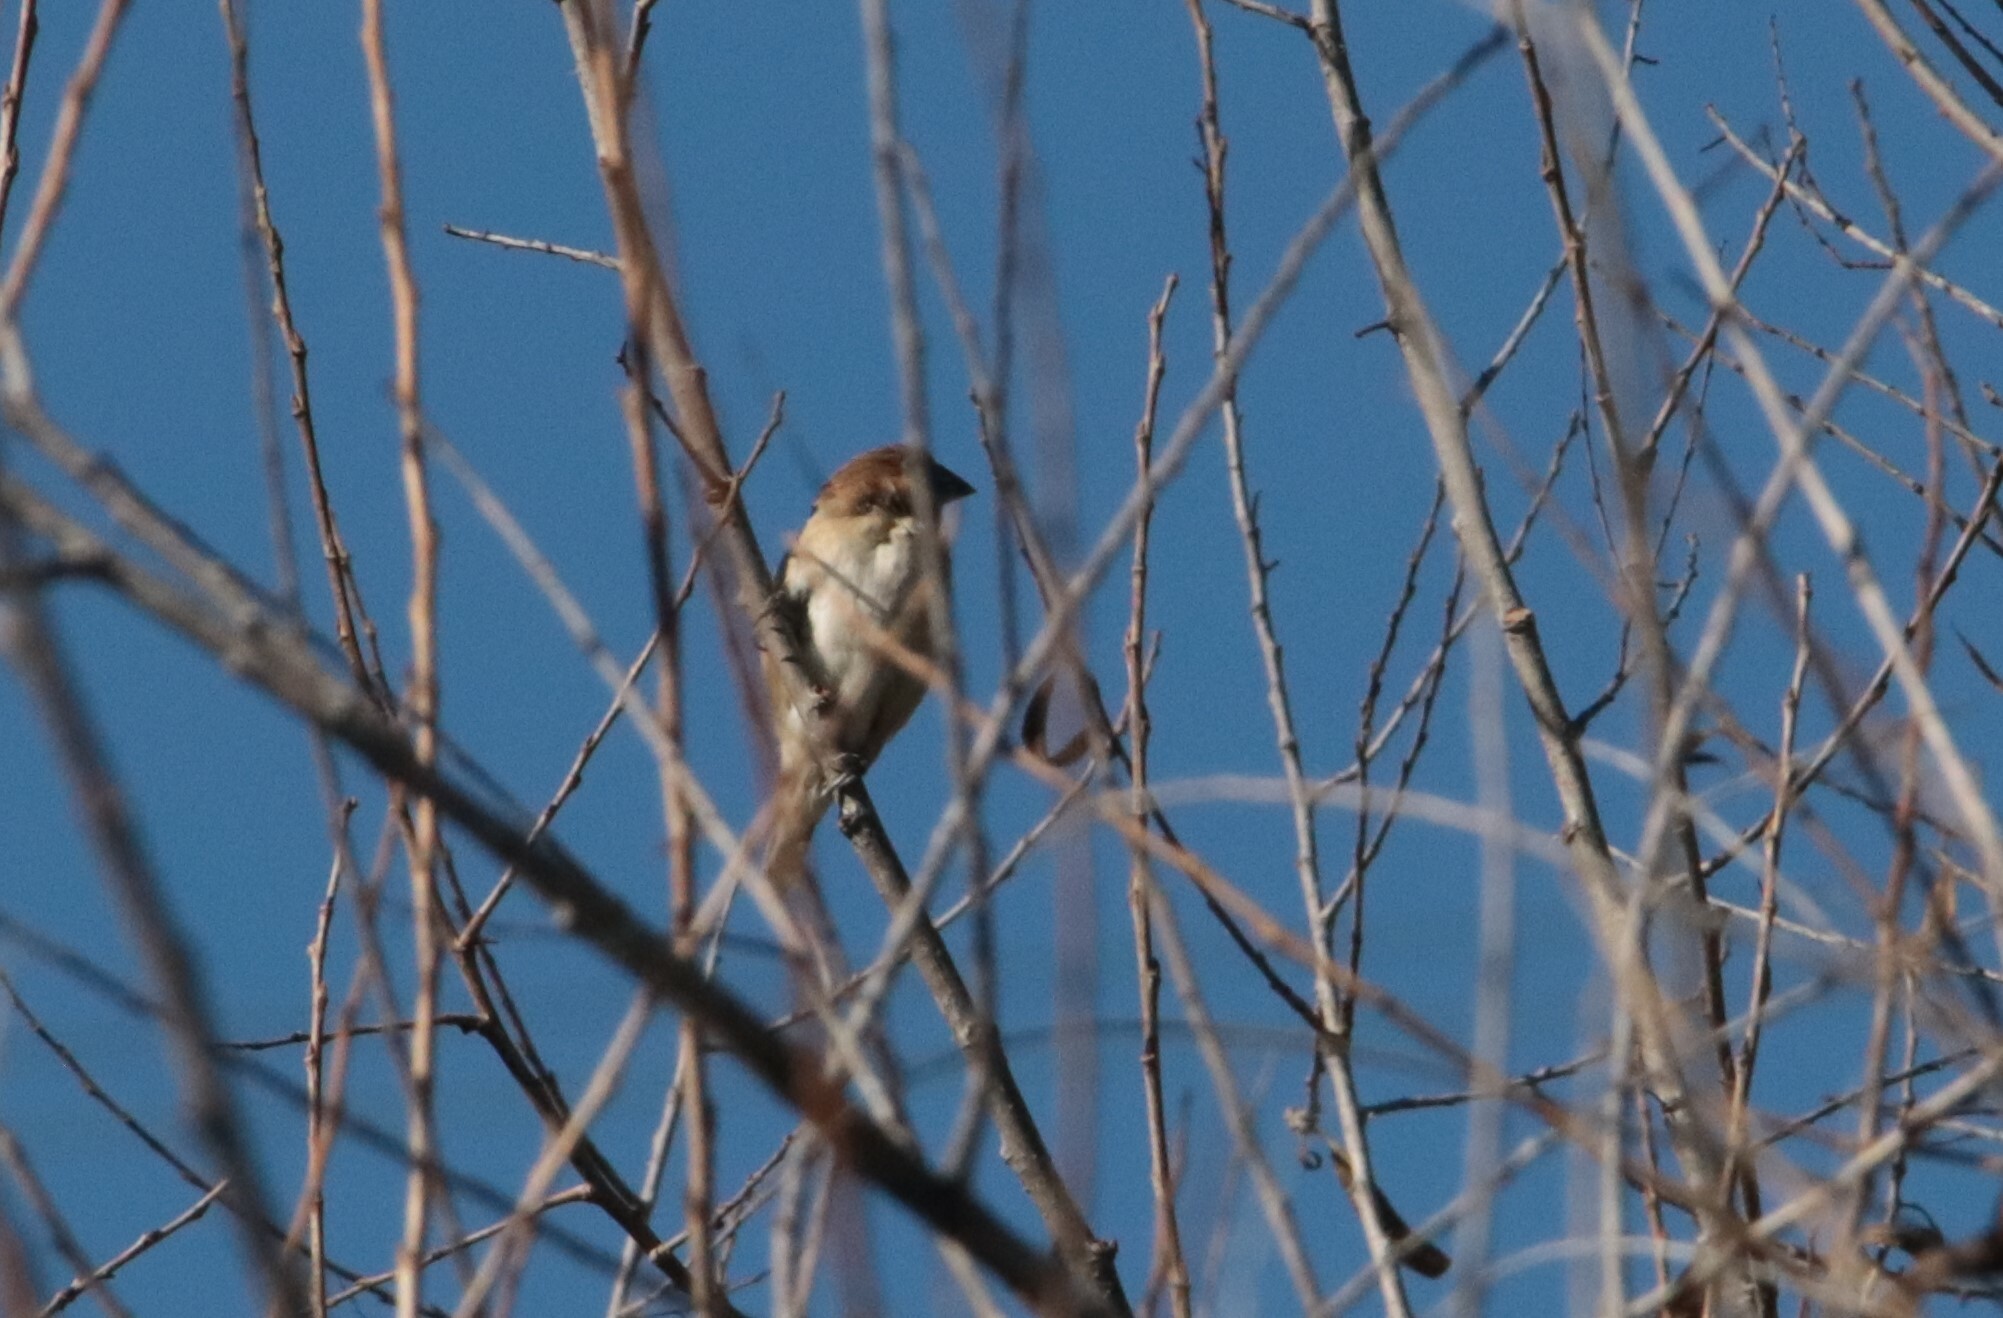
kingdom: Animalia
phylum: Chordata
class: Aves
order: Passeriformes
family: Estrildidae
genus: Lonchura
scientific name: Lonchura punctulata
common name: Scaly-breasted munia
